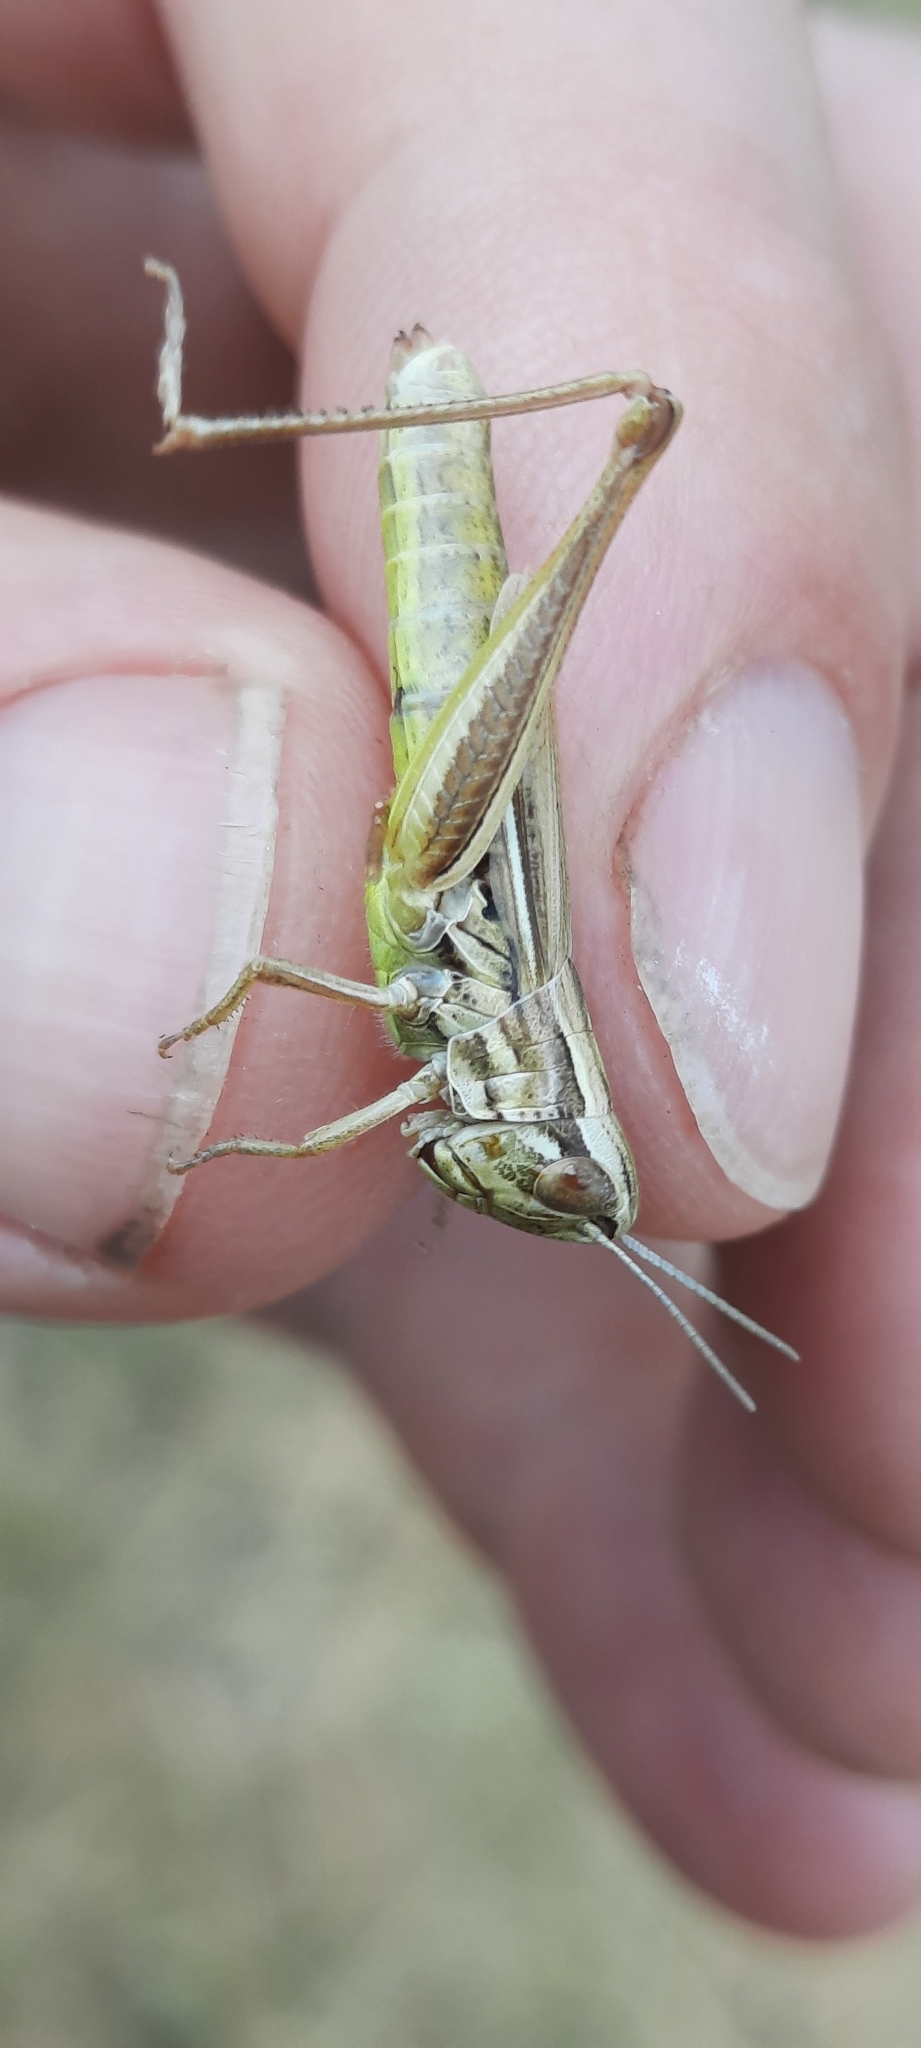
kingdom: Animalia
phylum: Arthropoda
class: Insecta
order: Orthoptera
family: Acrididae
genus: Euchorthippus
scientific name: Euchorthippus declivus
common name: Common straw grasshopper
